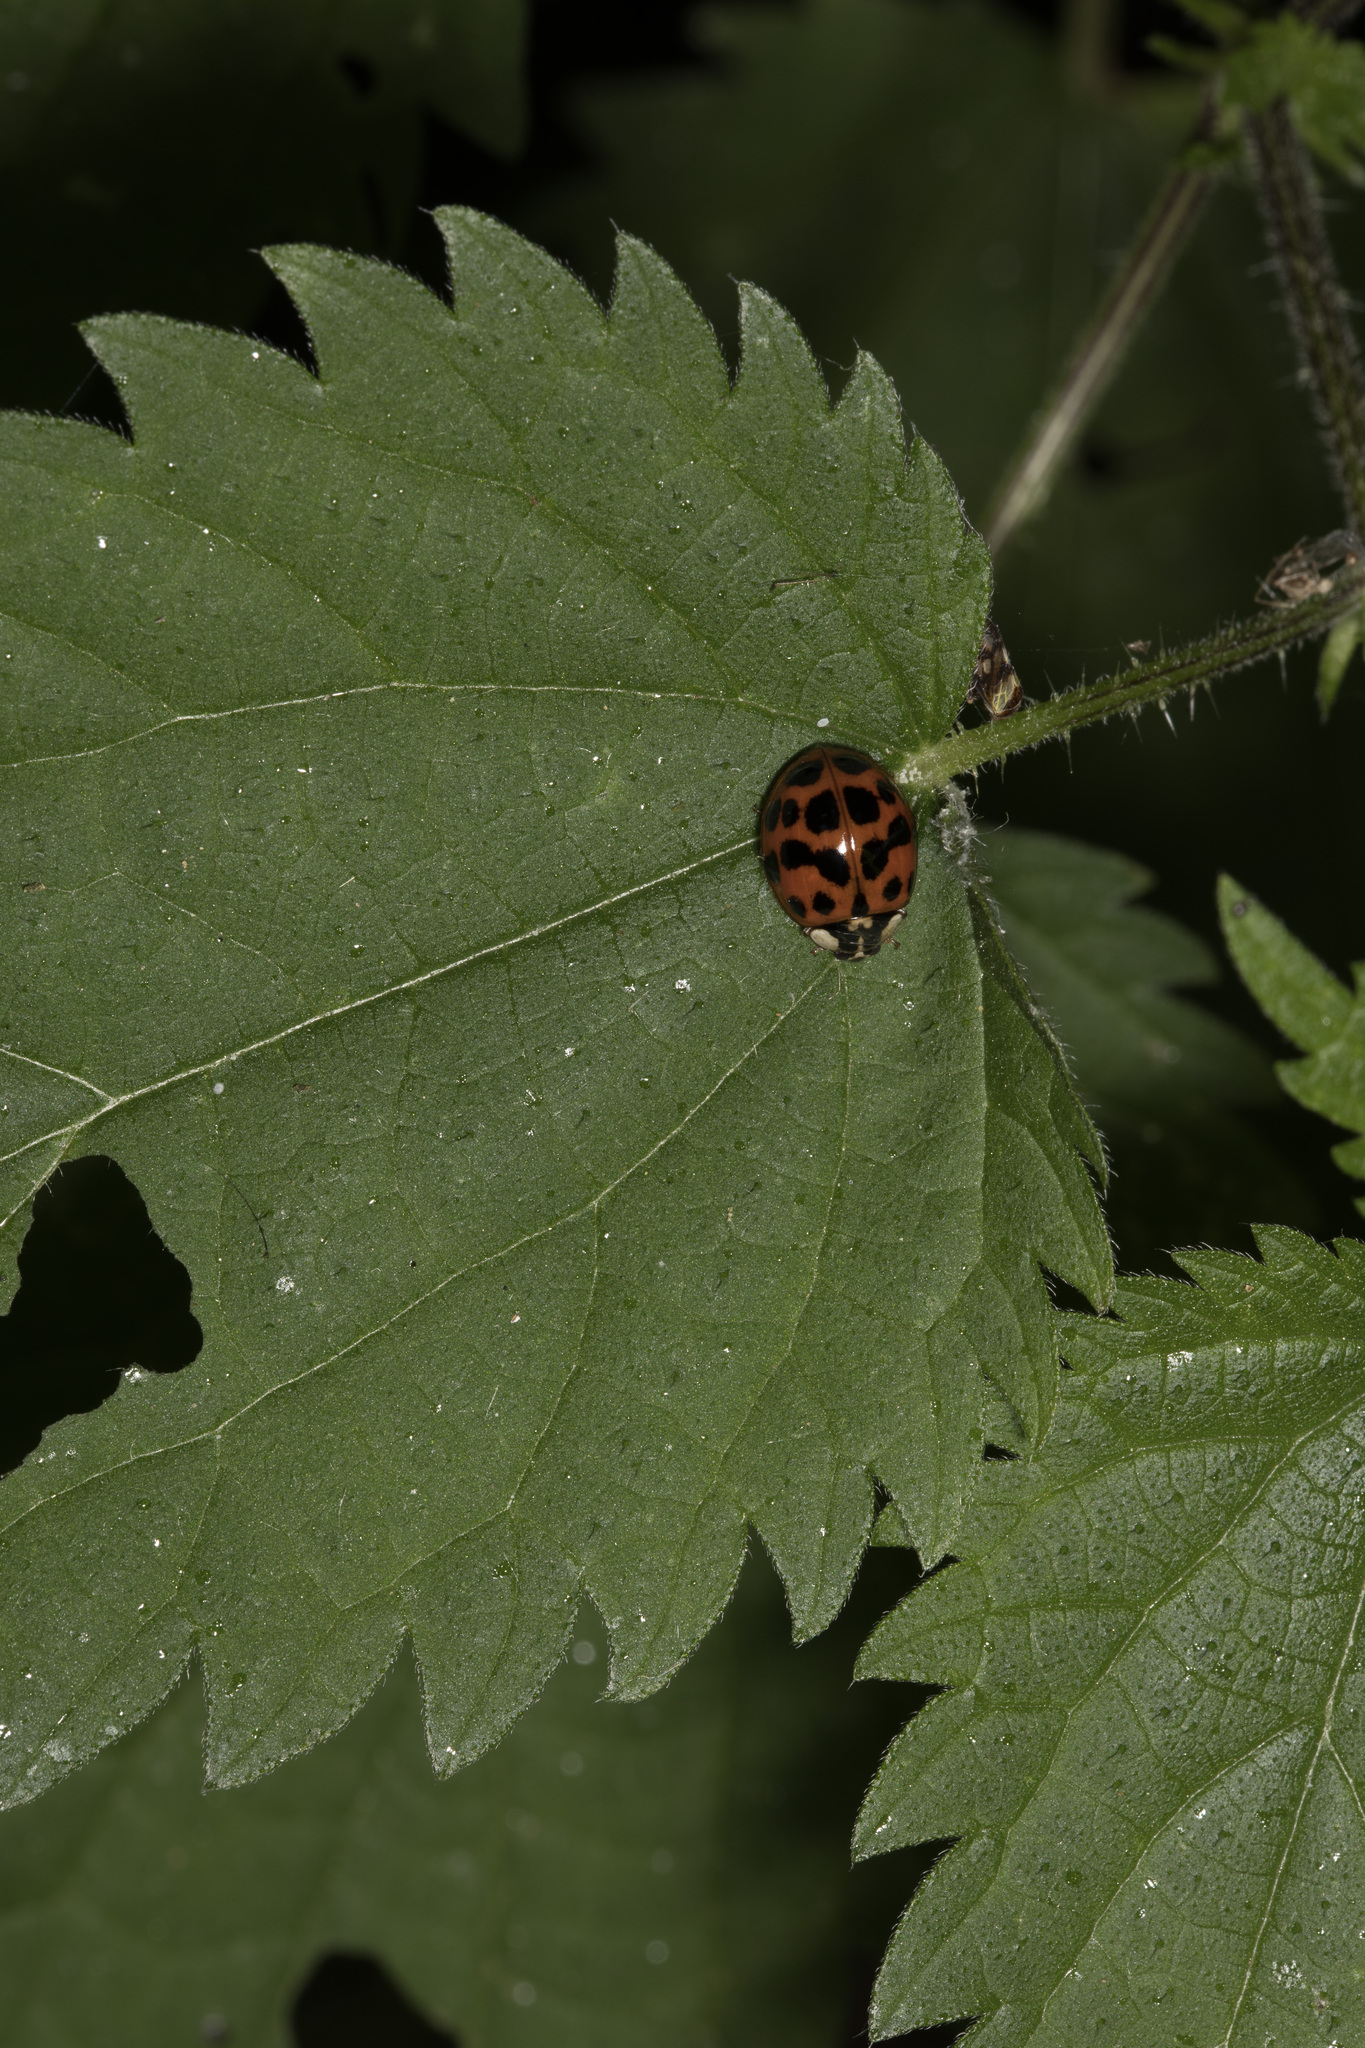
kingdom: Animalia
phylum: Arthropoda
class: Insecta
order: Coleoptera
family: Coccinellidae
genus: Harmonia
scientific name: Harmonia axyridis
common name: Harlequin ladybird
